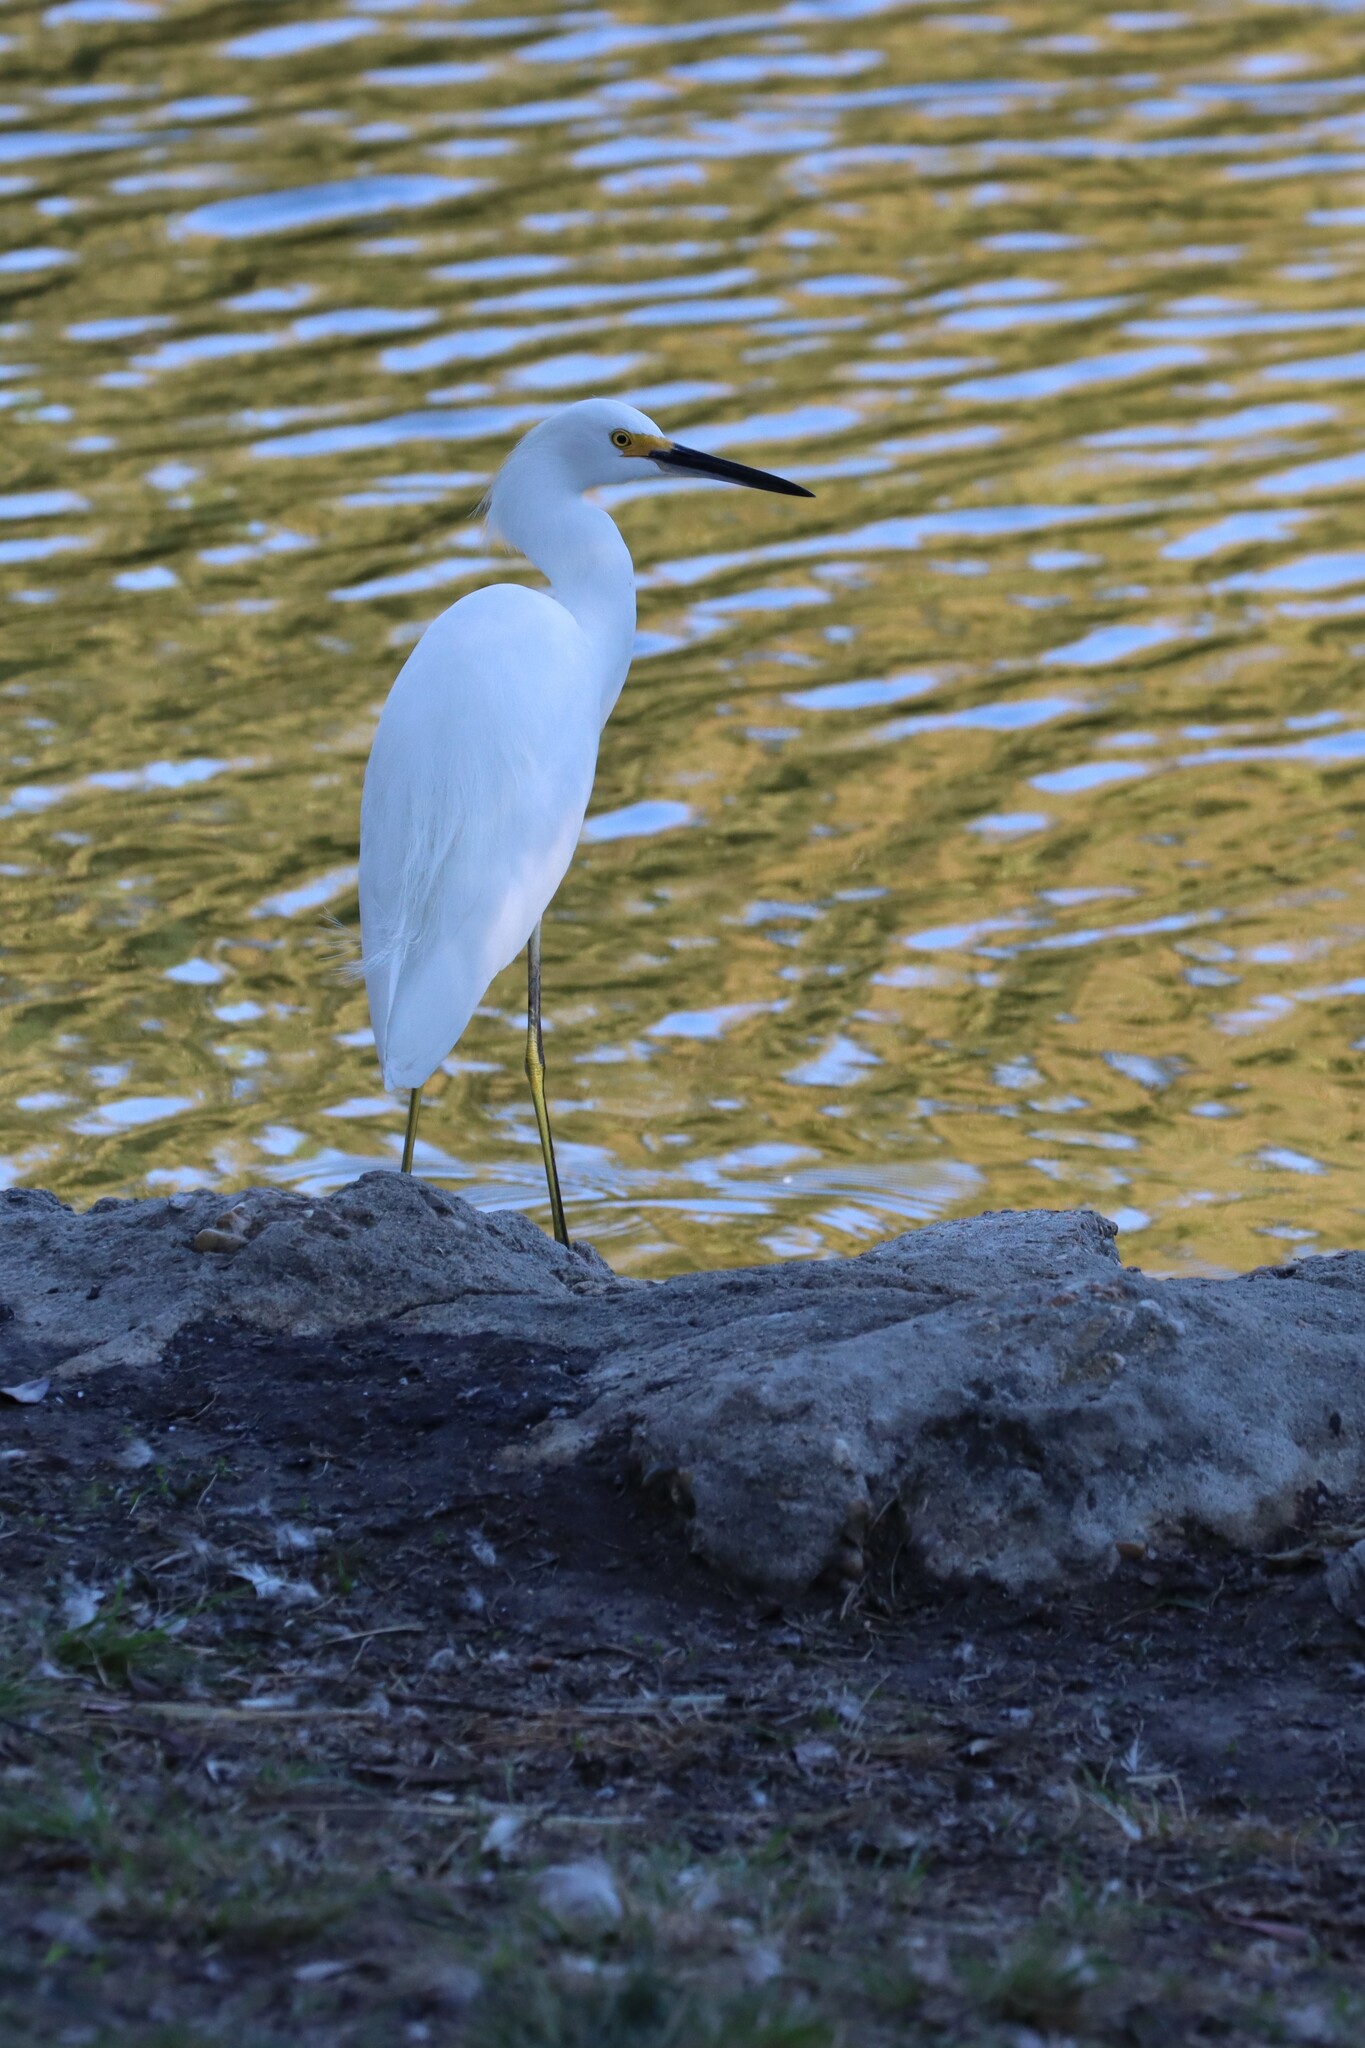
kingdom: Animalia
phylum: Chordata
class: Aves
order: Pelecaniformes
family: Ardeidae
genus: Egretta
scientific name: Egretta thula
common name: Snowy egret
